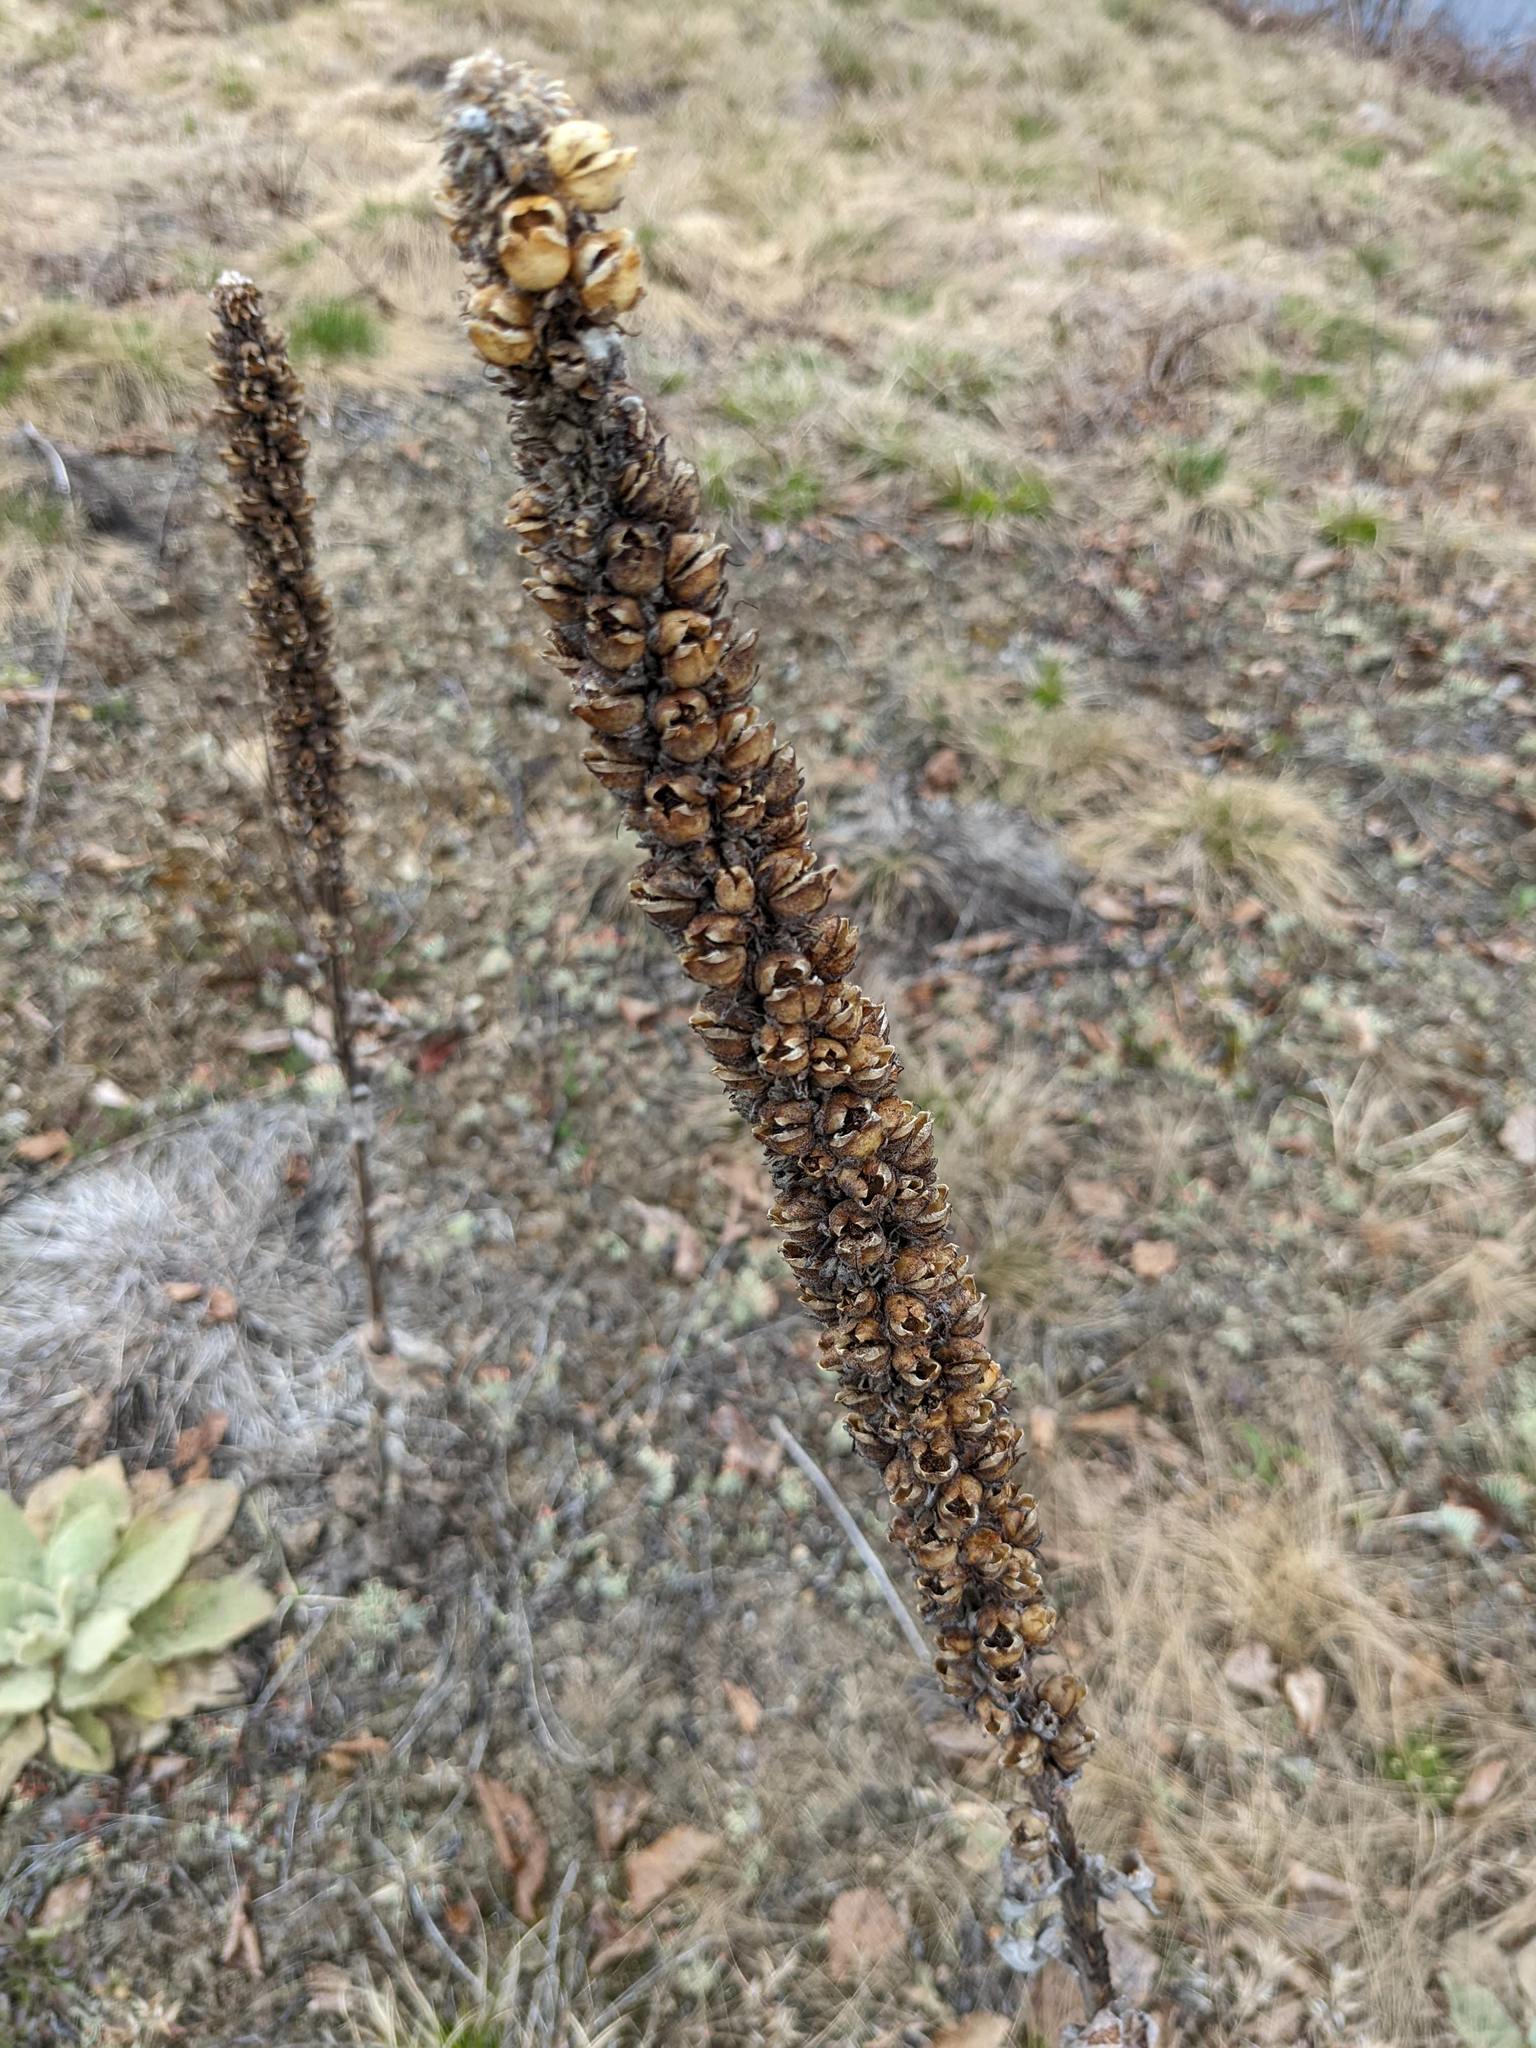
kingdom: Plantae
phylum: Tracheophyta
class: Magnoliopsida
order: Lamiales
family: Scrophulariaceae
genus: Verbascum
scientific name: Verbascum thapsus
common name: Common mullein
